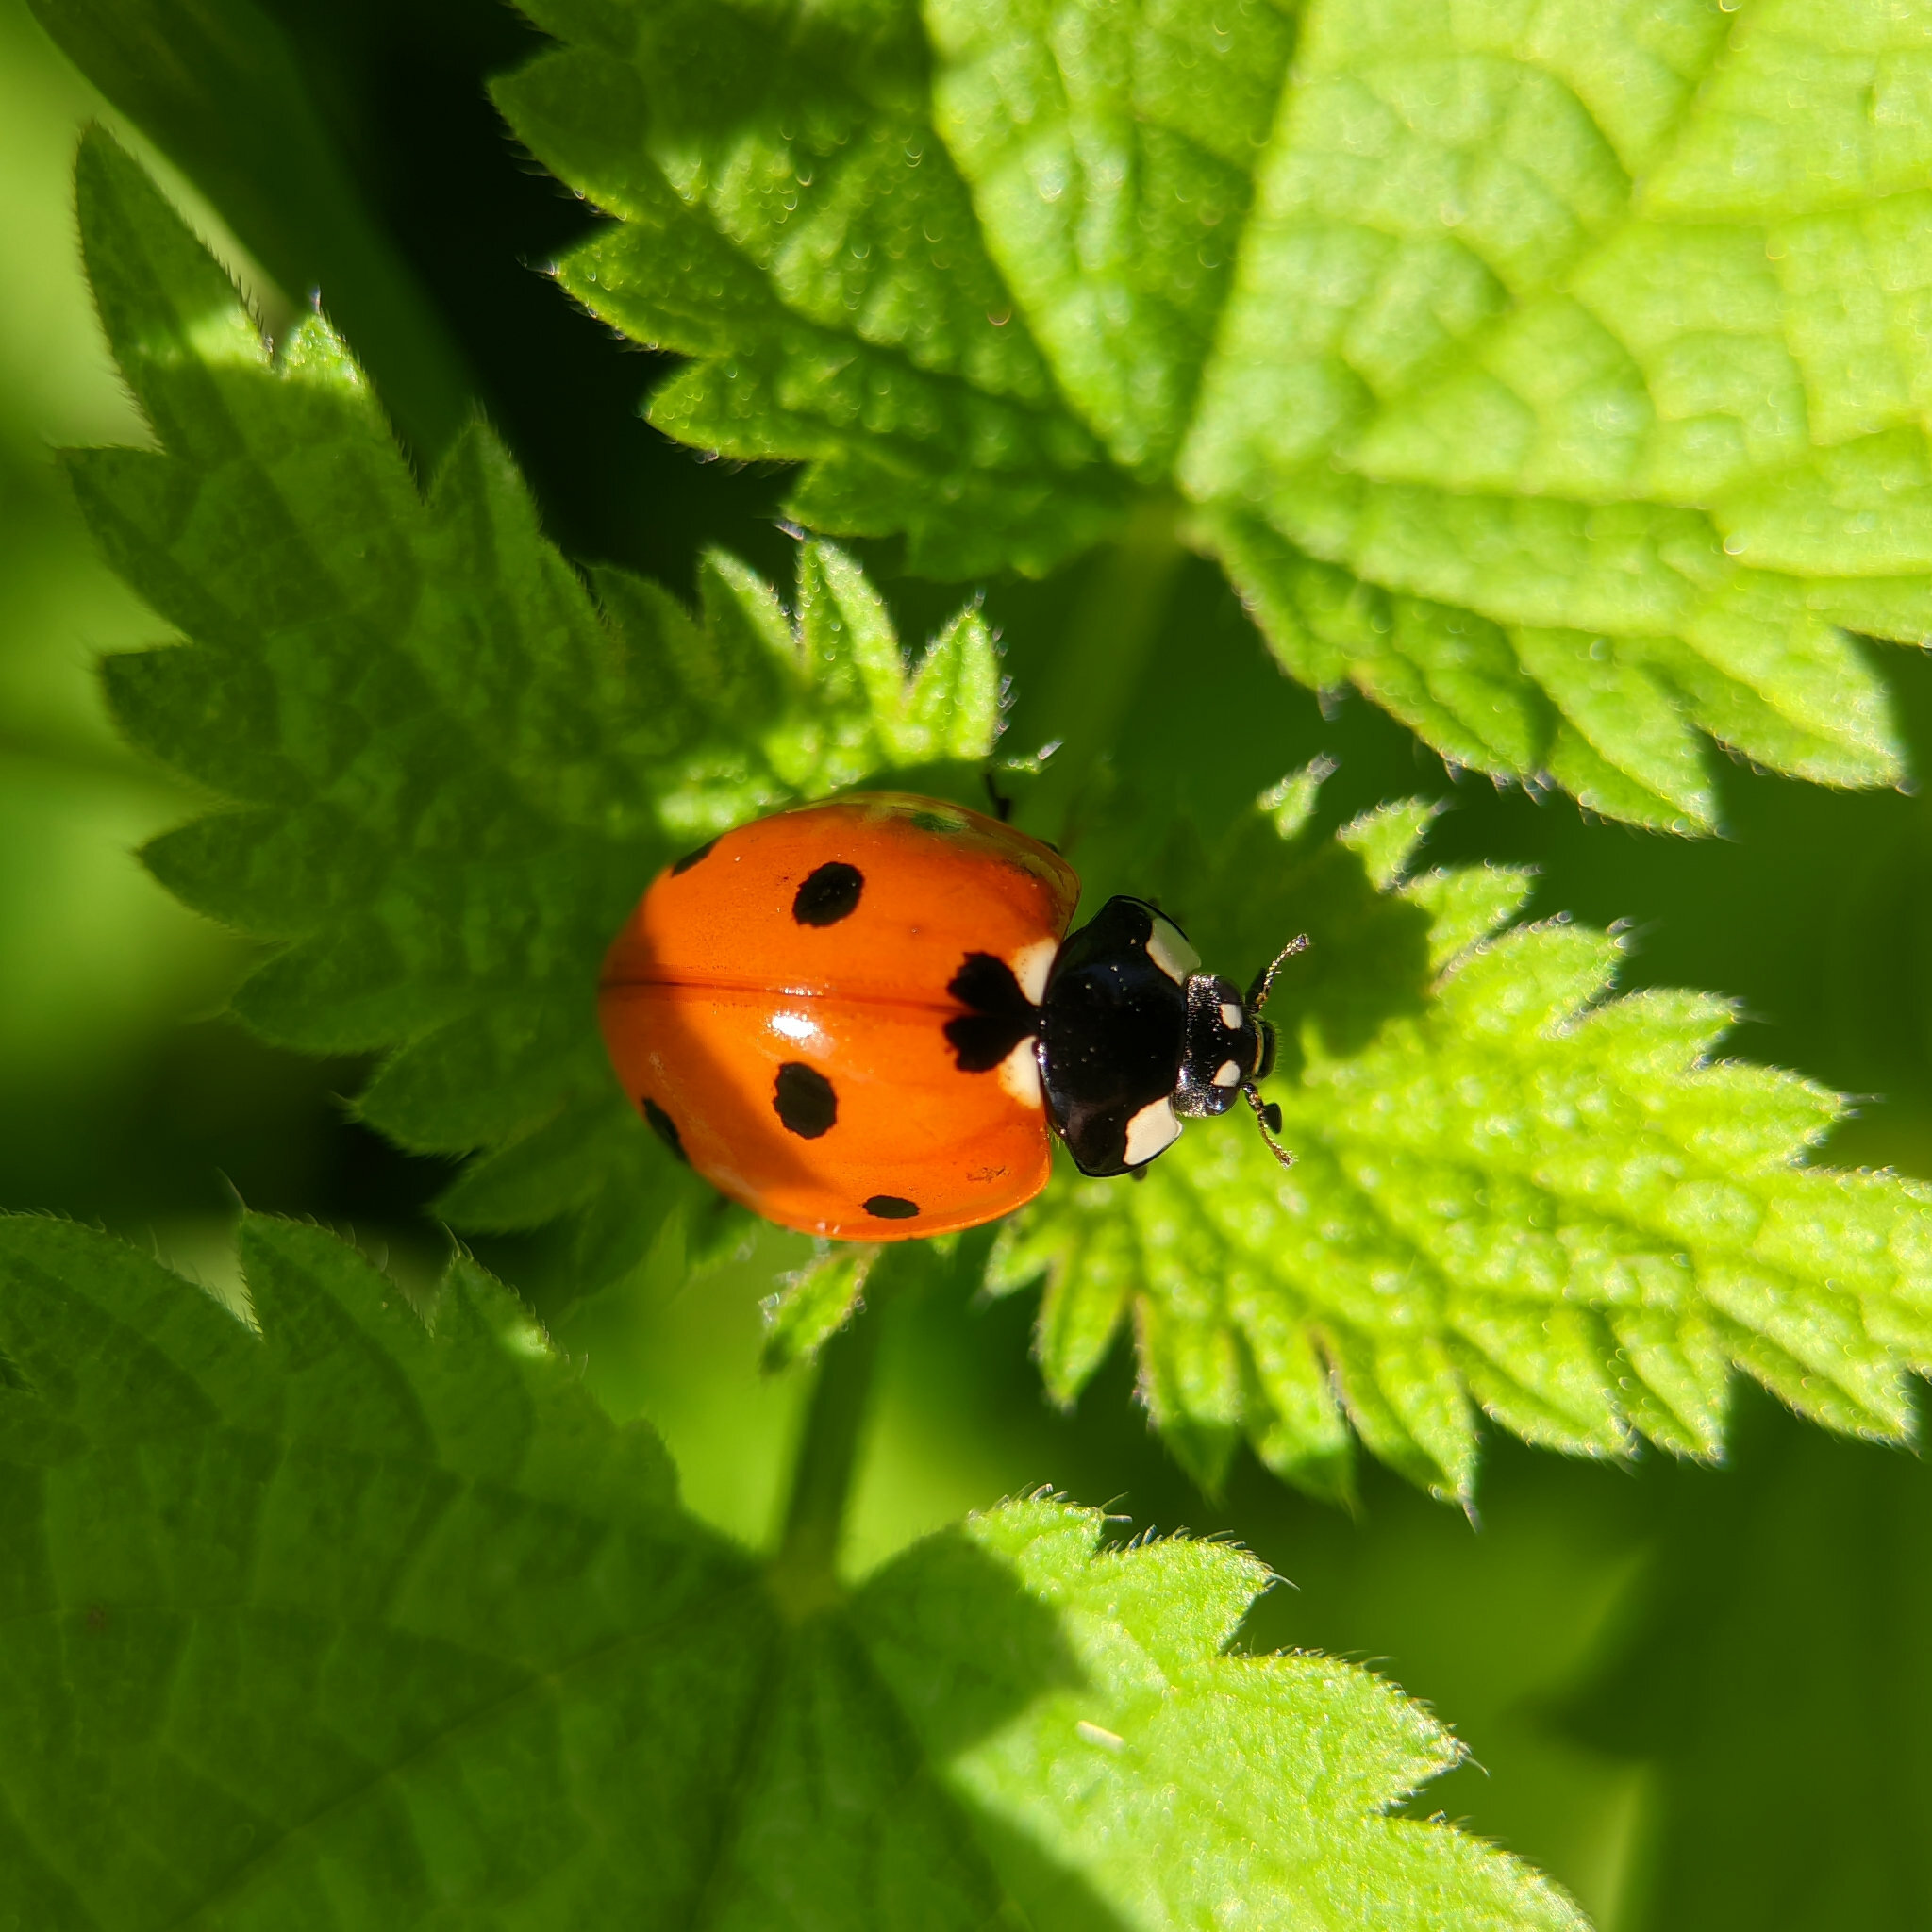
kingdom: Animalia
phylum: Arthropoda
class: Insecta
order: Coleoptera
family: Coccinellidae
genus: Coccinella
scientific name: Coccinella septempunctata
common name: Sevenspotted lady beetle
